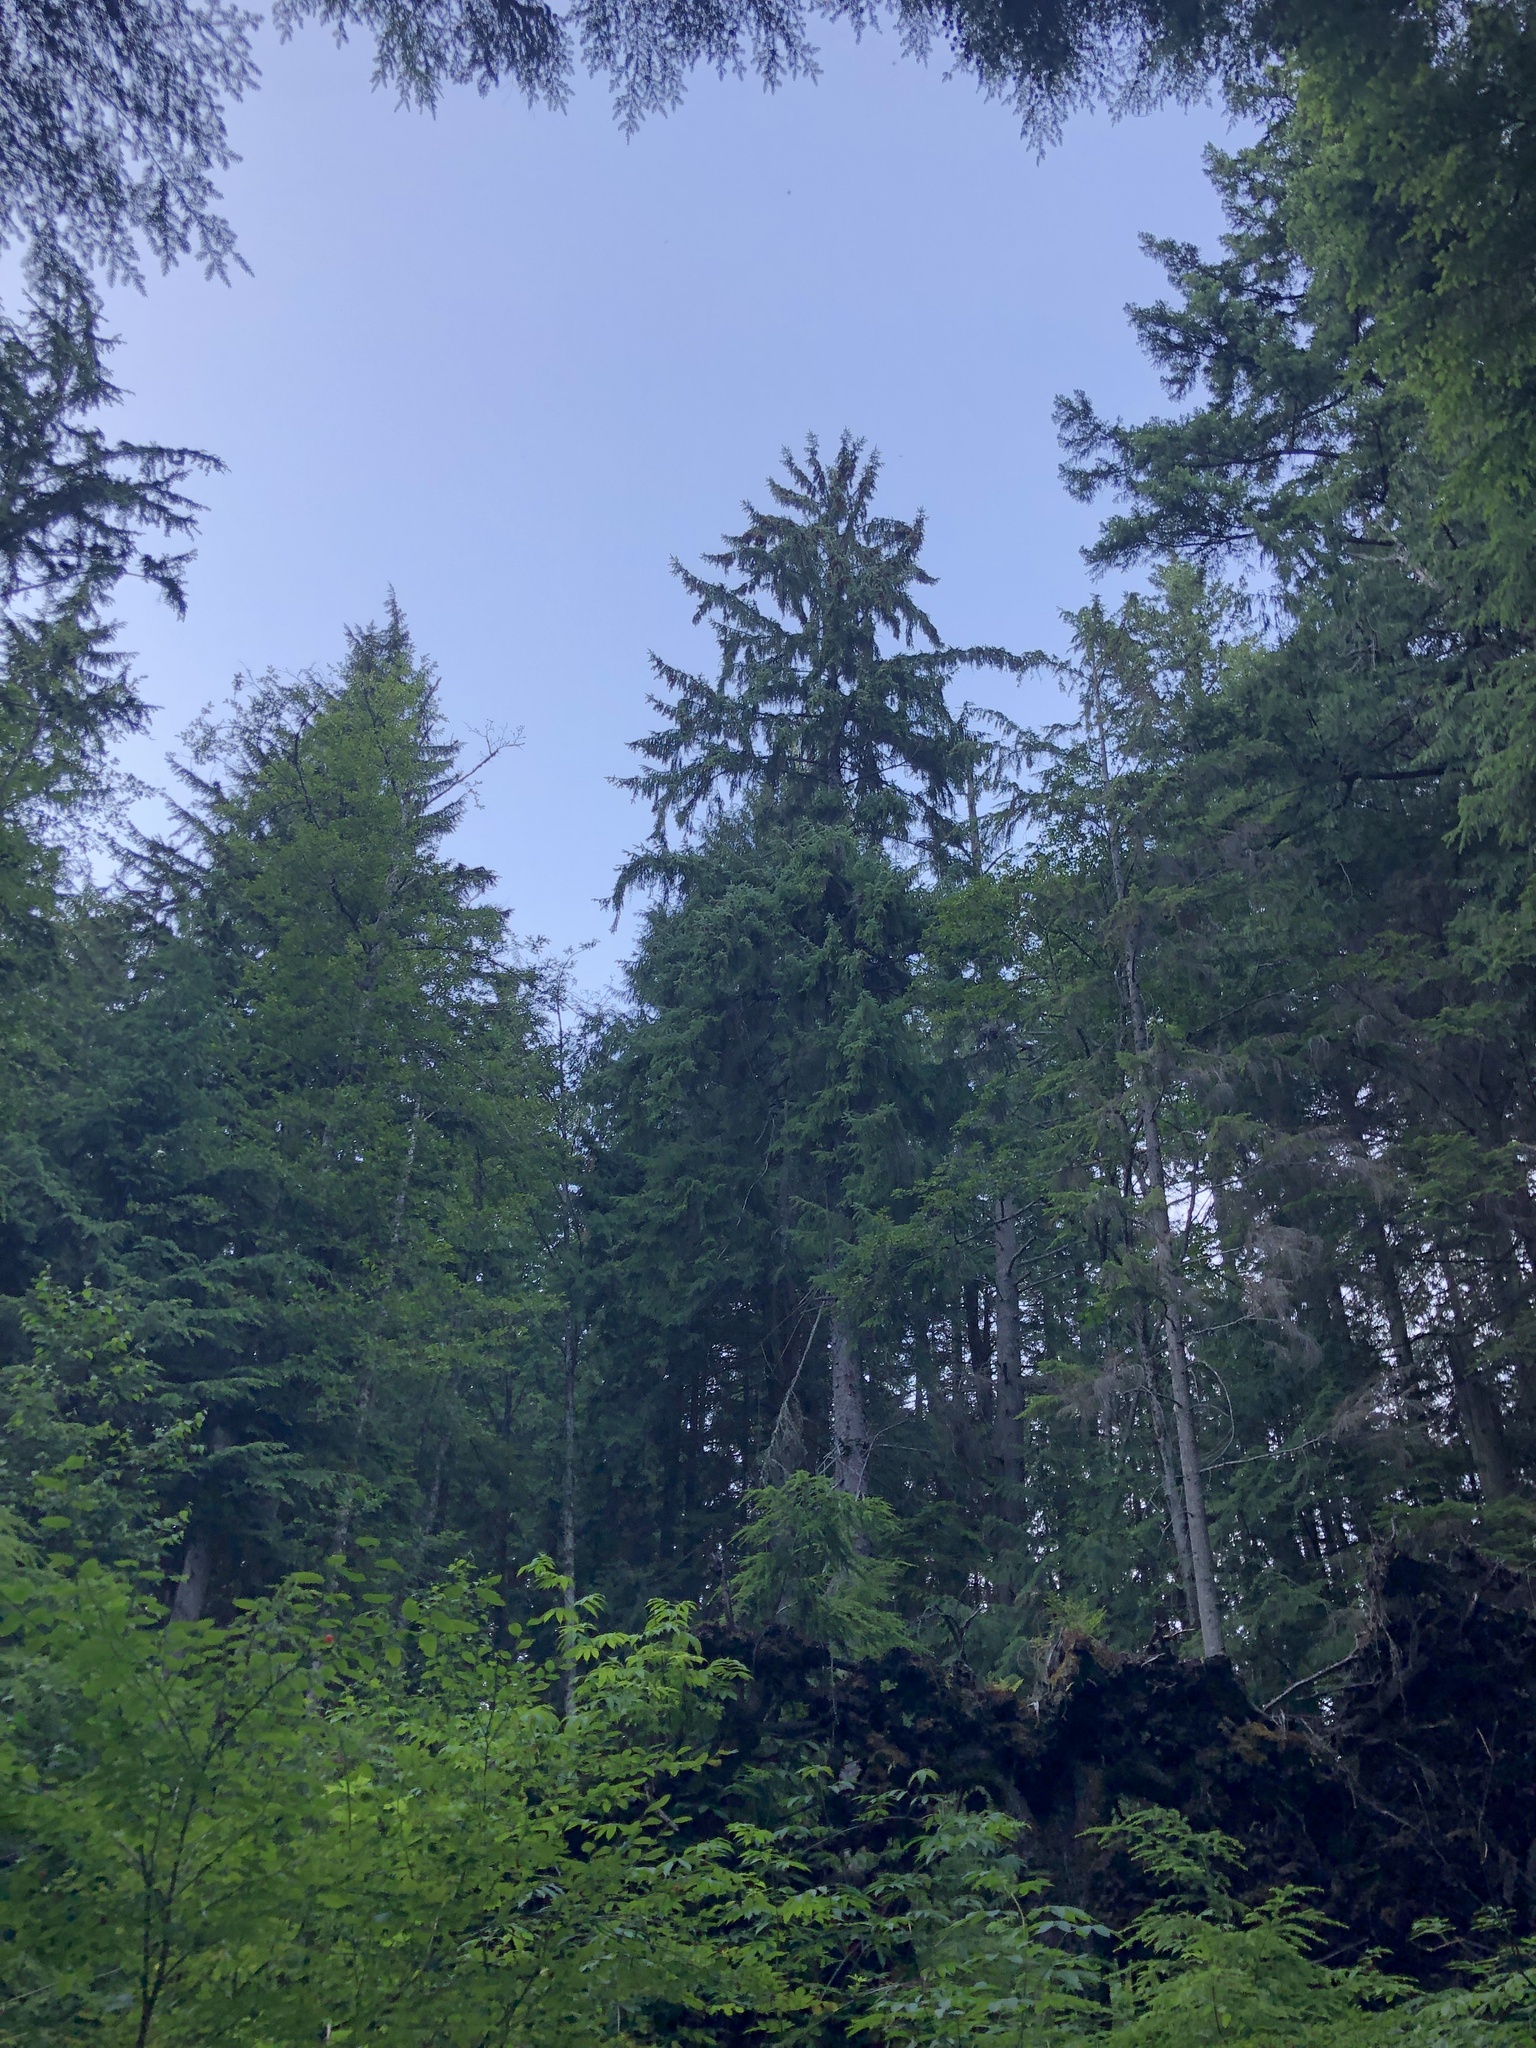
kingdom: Plantae
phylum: Tracheophyta
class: Pinopsida
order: Pinales
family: Pinaceae
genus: Picea
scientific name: Picea sitchensis
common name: Sitka spruce
